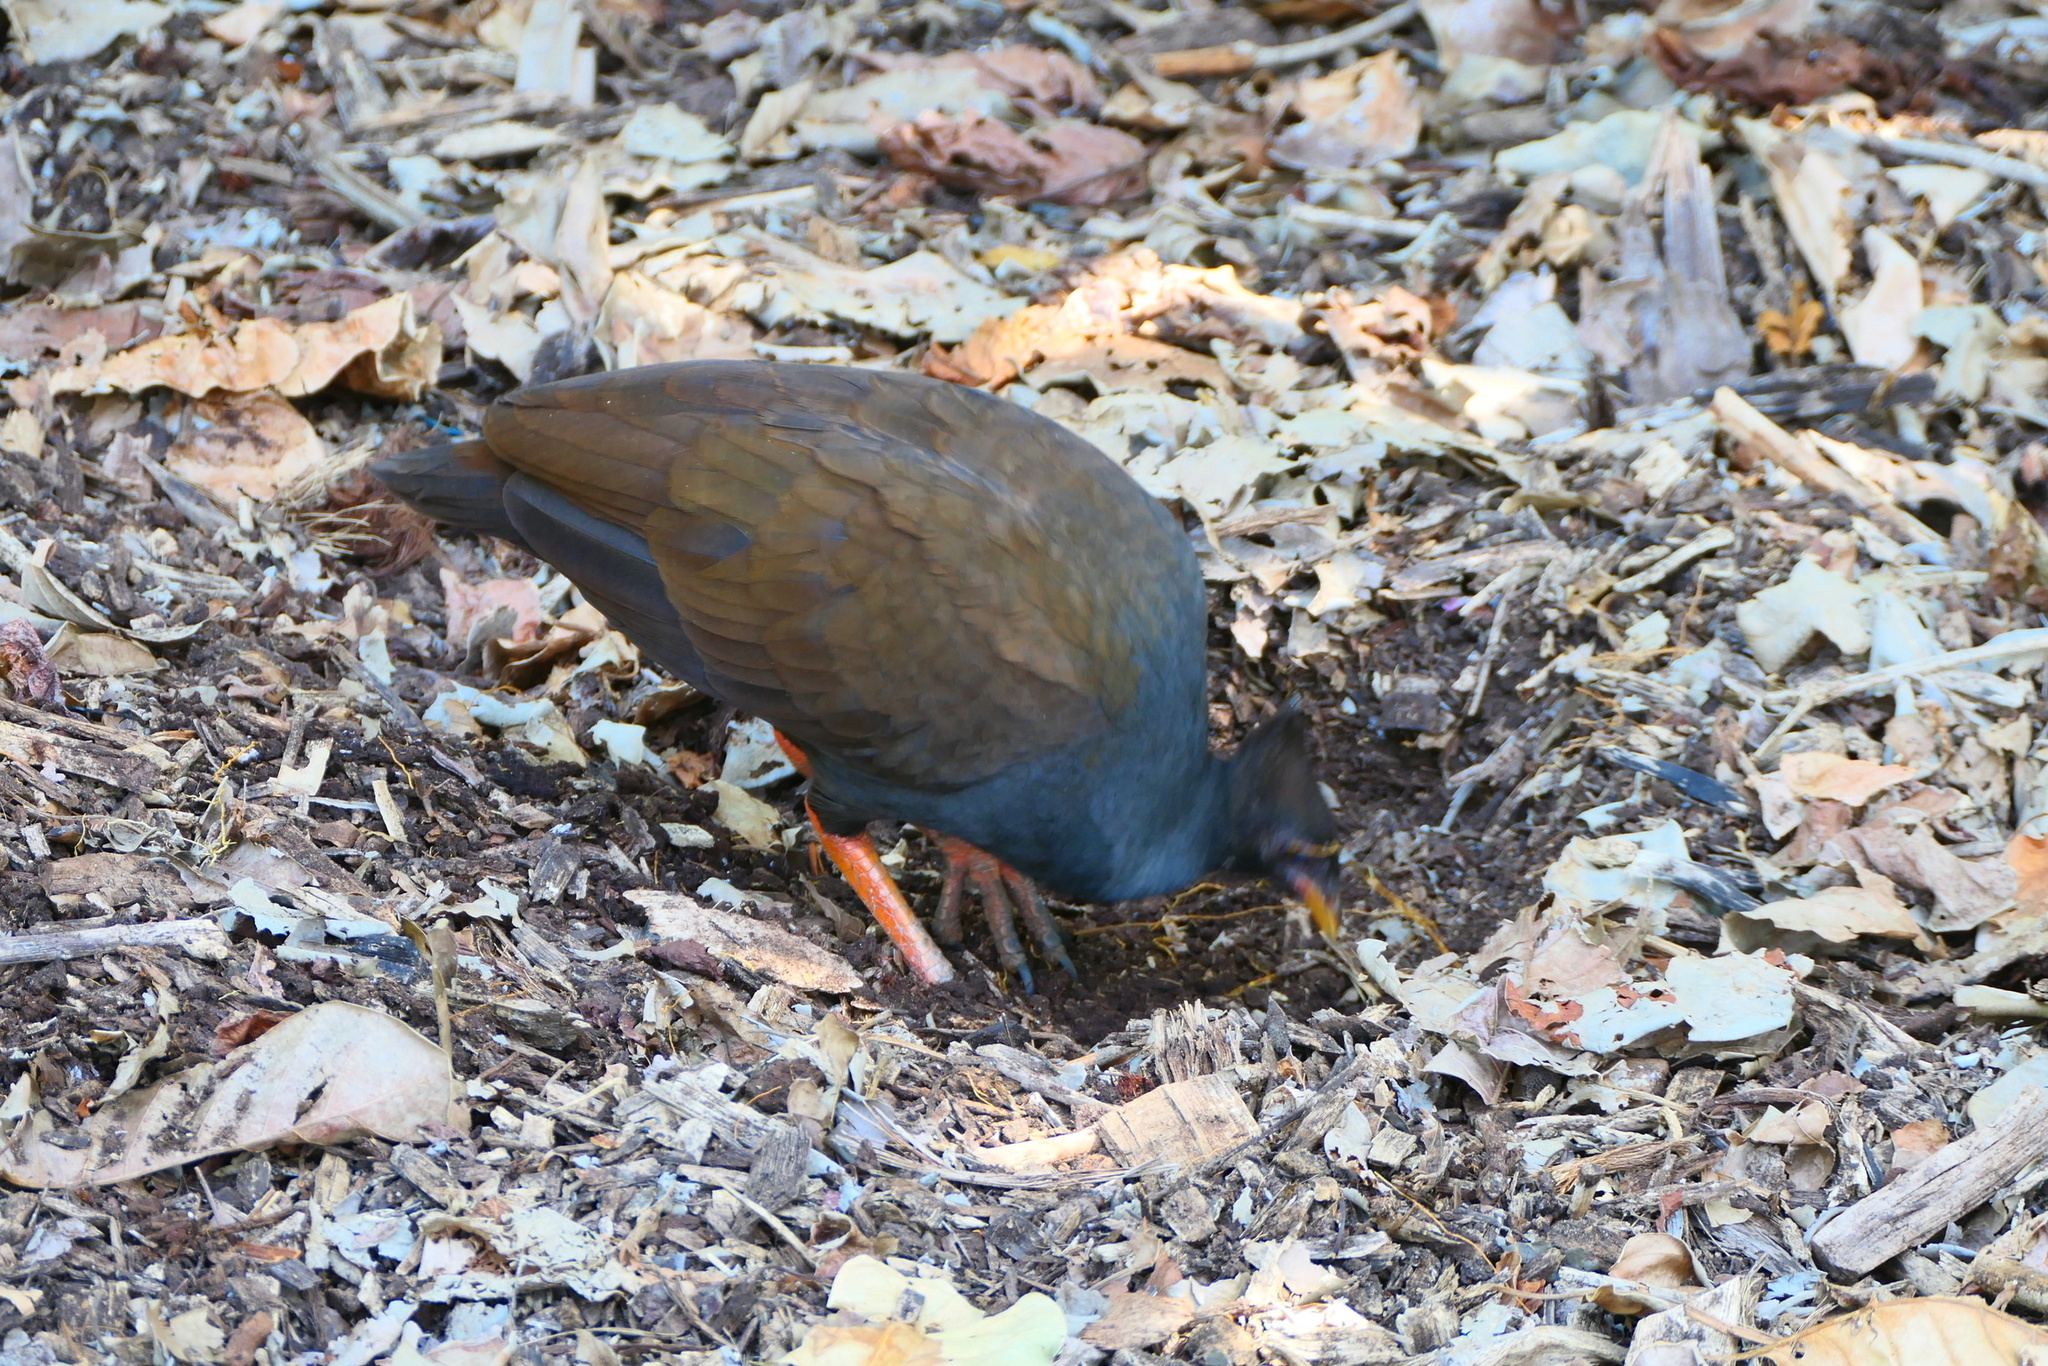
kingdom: Animalia
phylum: Chordata
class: Aves
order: Galliformes
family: Megapodiidae
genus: Megapodius
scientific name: Megapodius reinwardt
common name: Orange-footed scrubfowl
